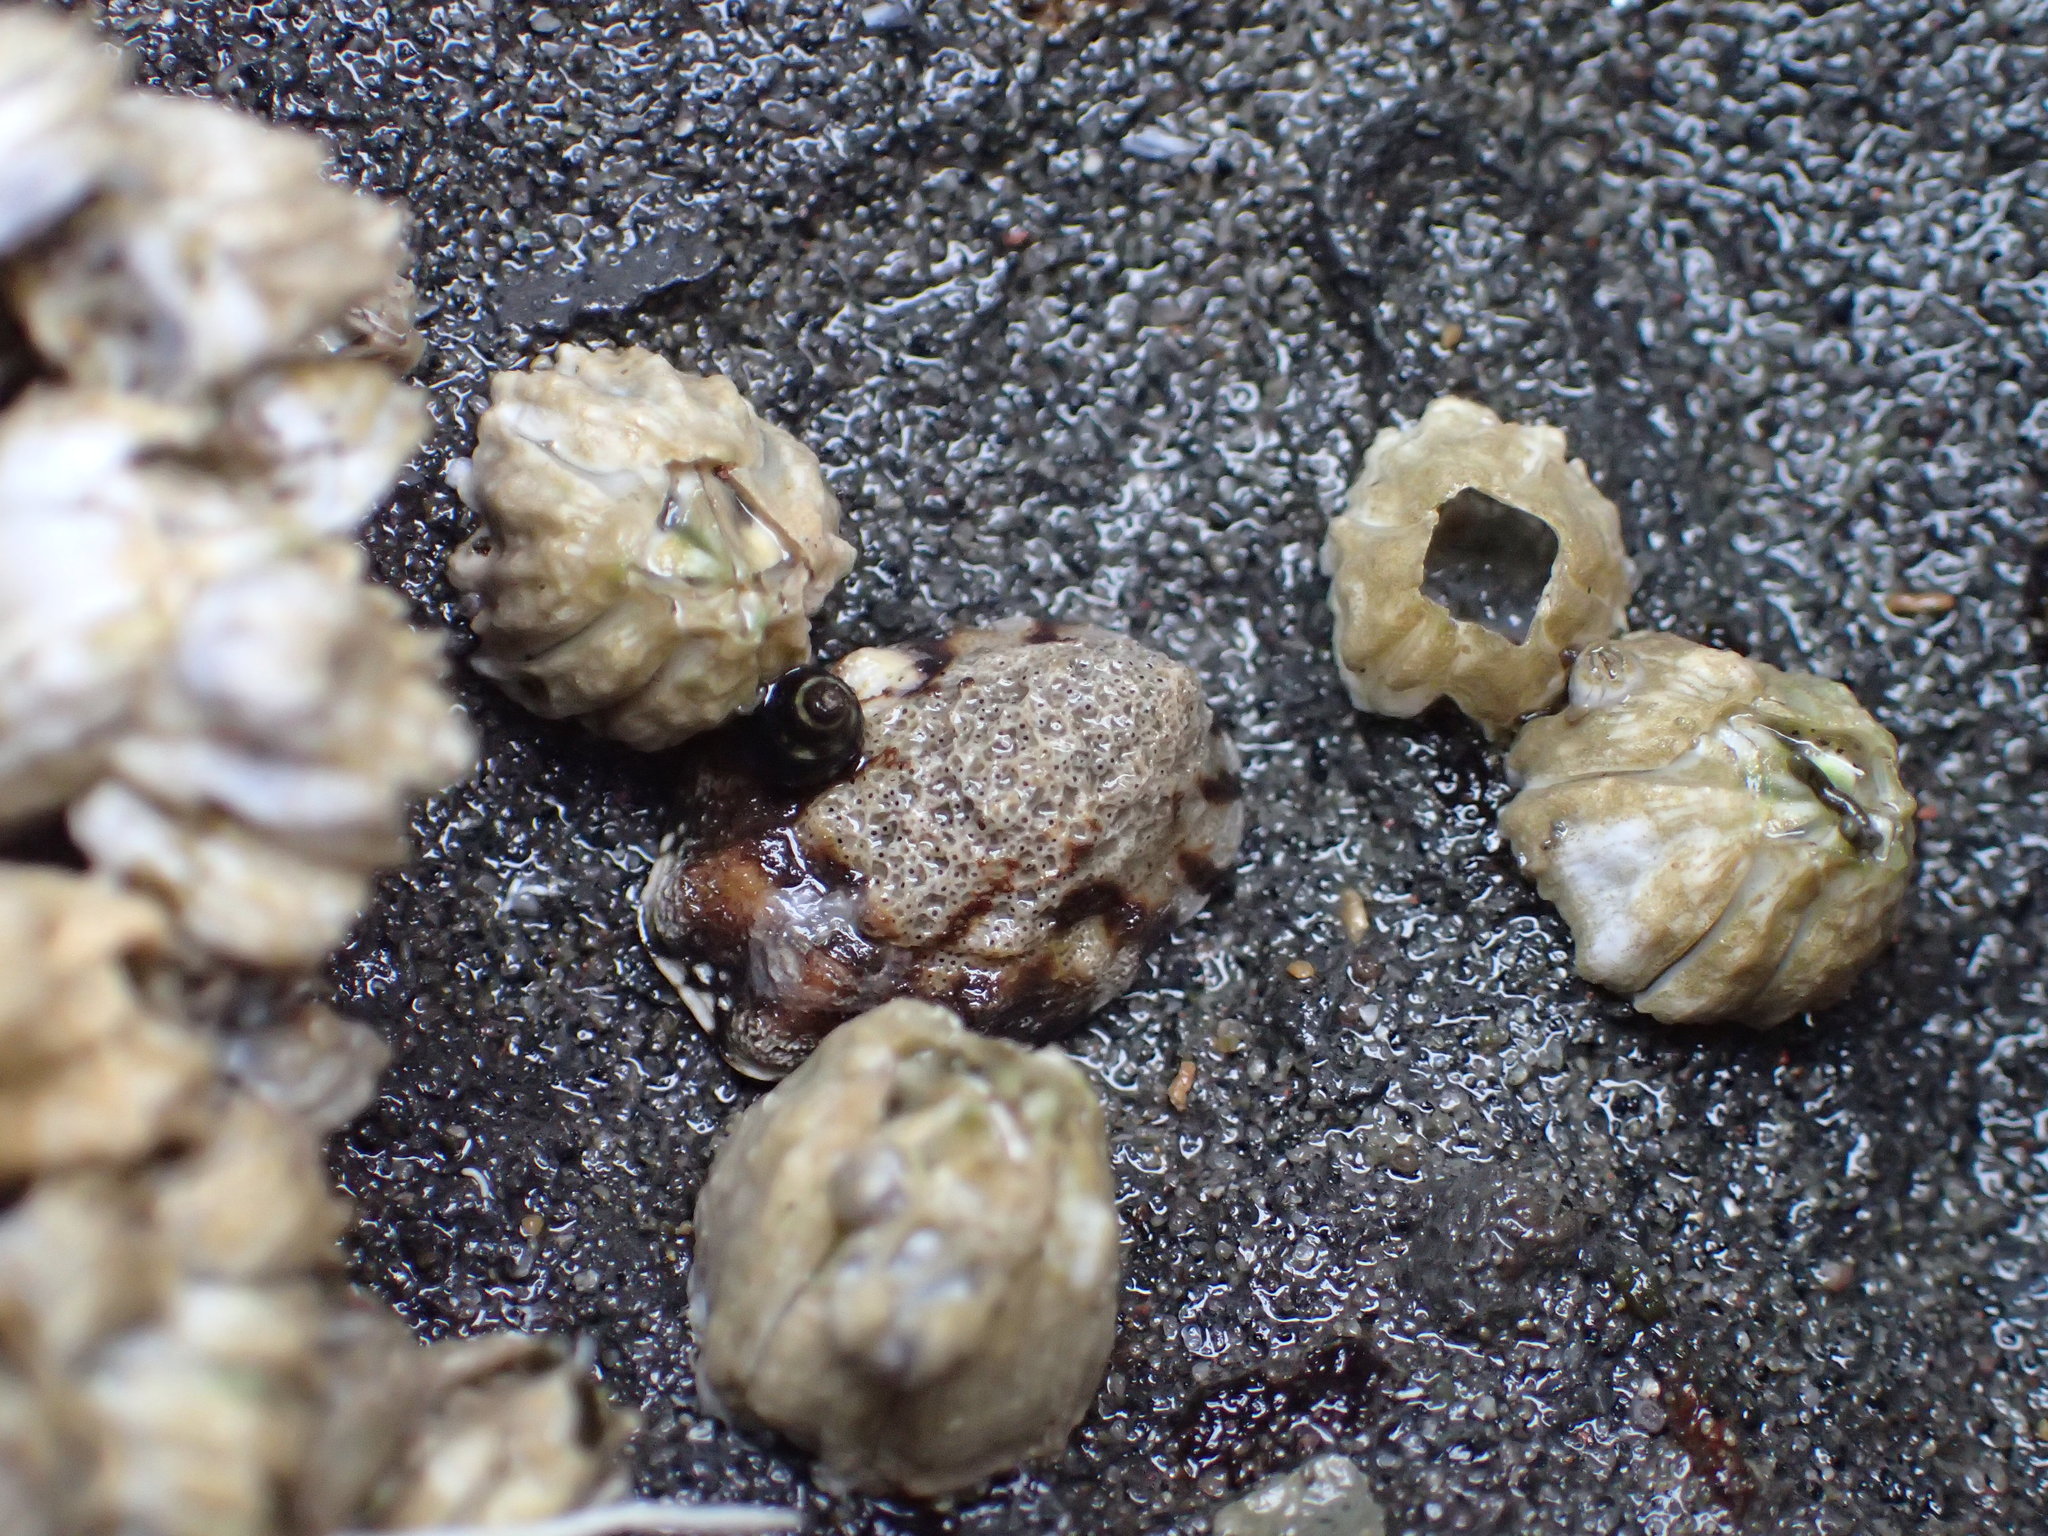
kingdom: Animalia
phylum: Mollusca
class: Gastropoda
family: Lottiidae
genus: Lottia
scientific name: Lottia digitalis
